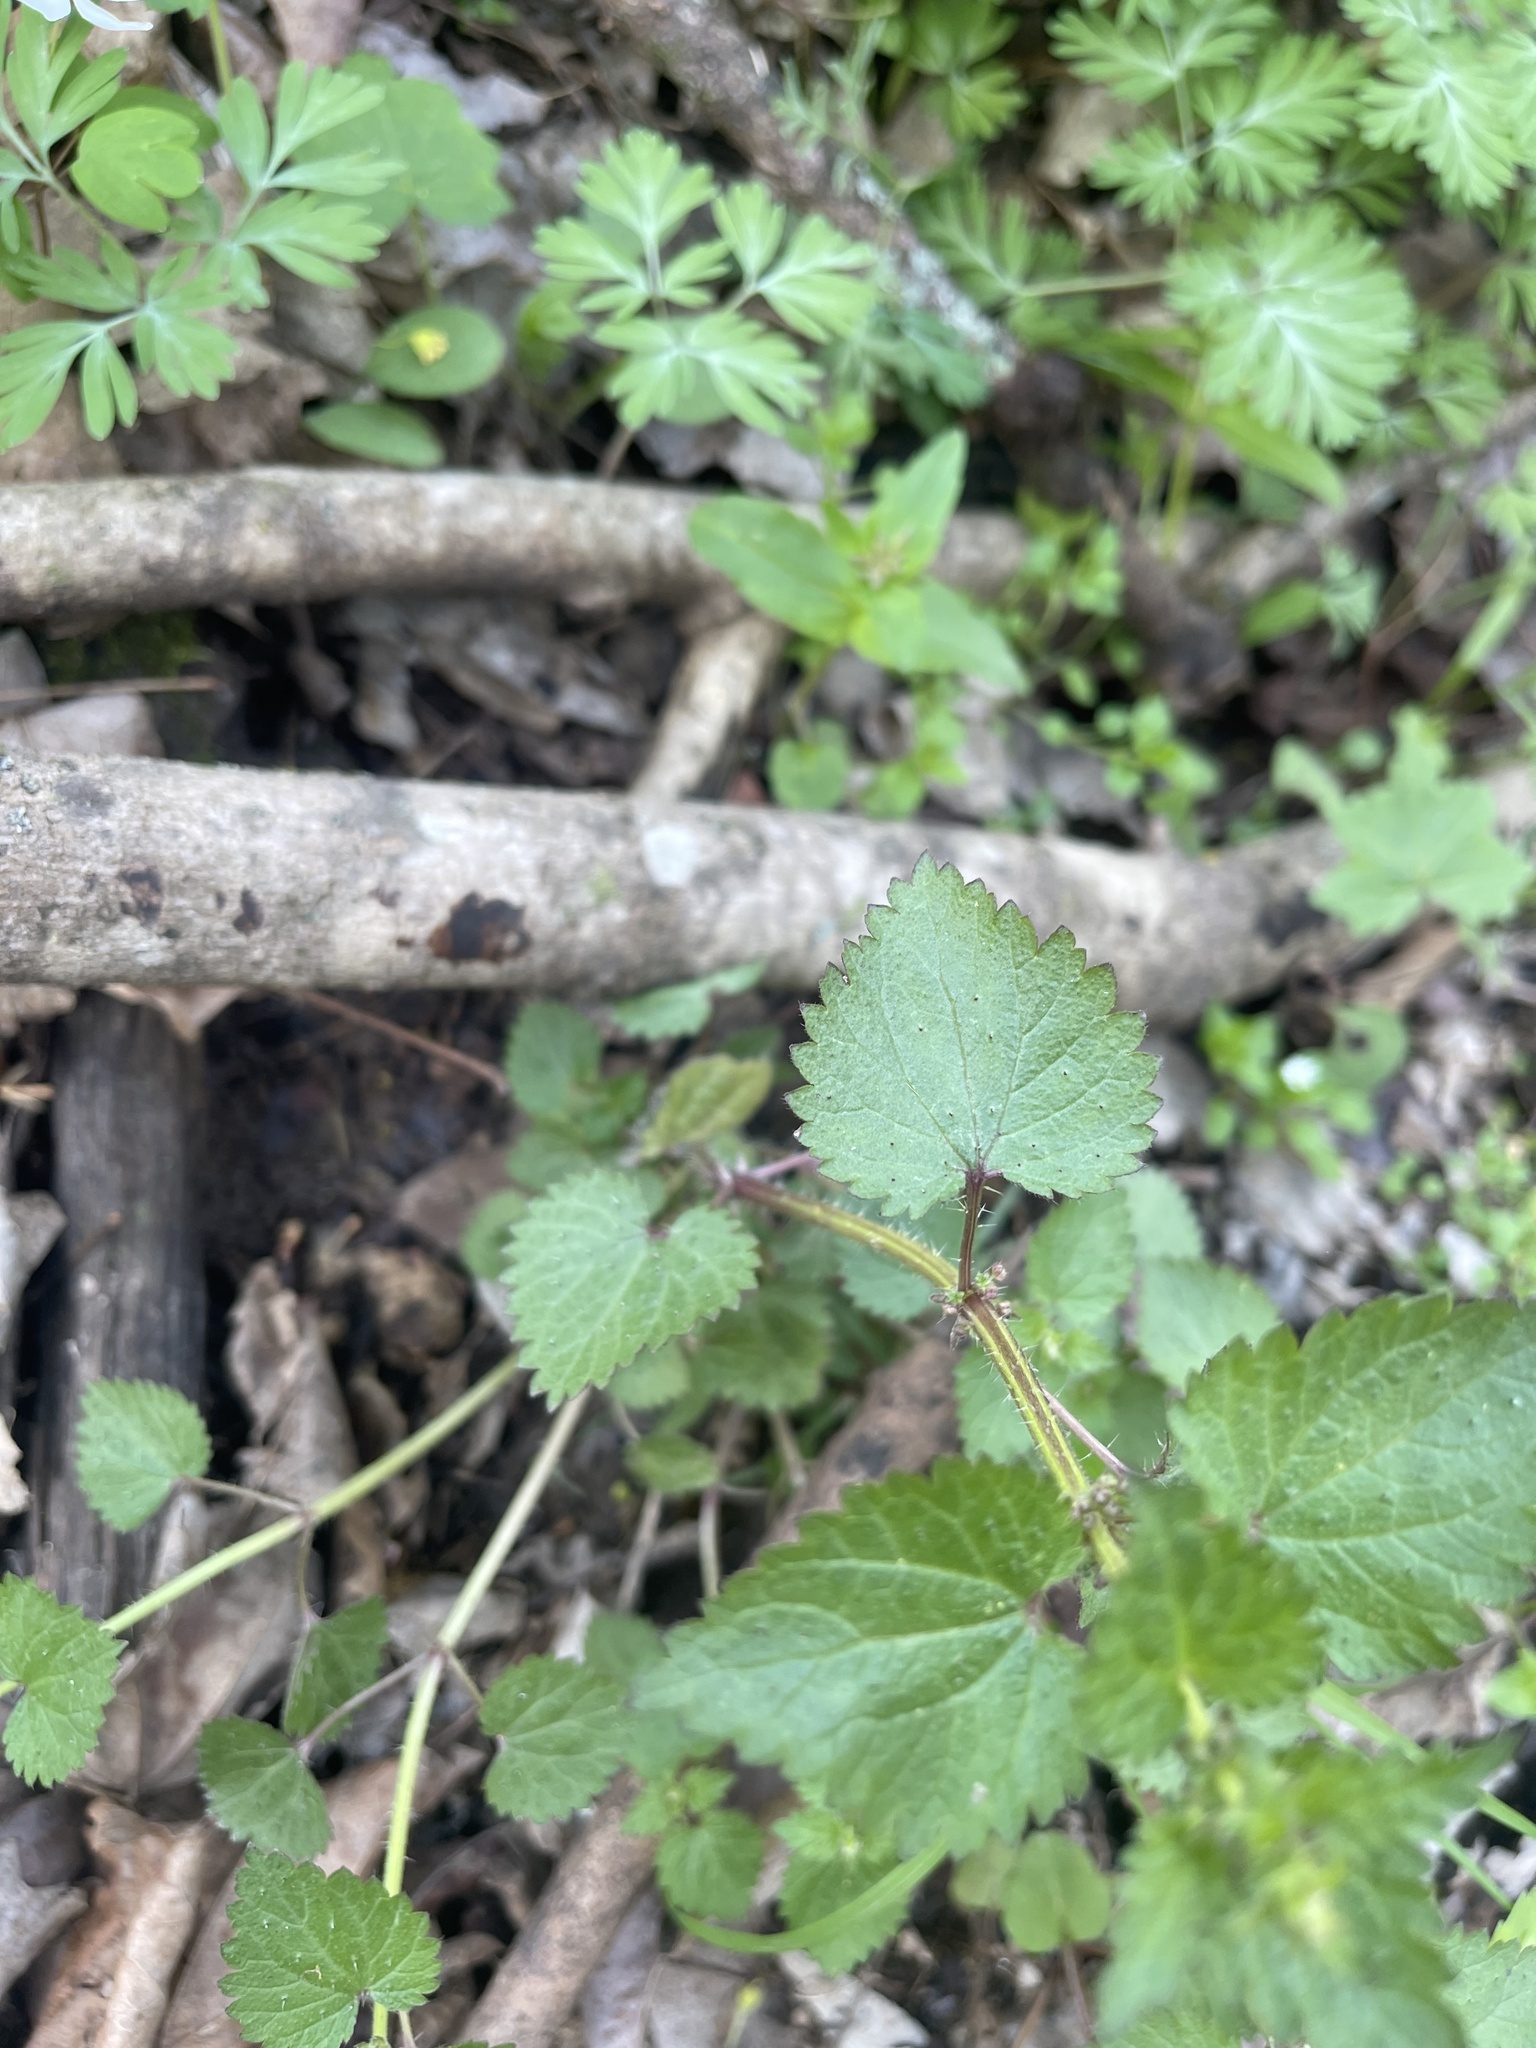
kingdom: Plantae
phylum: Tracheophyta
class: Magnoliopsida
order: Rosales
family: Urticaceae
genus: Urtica
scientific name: Urtica chamaedryoides
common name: Heart-leaf nettle
